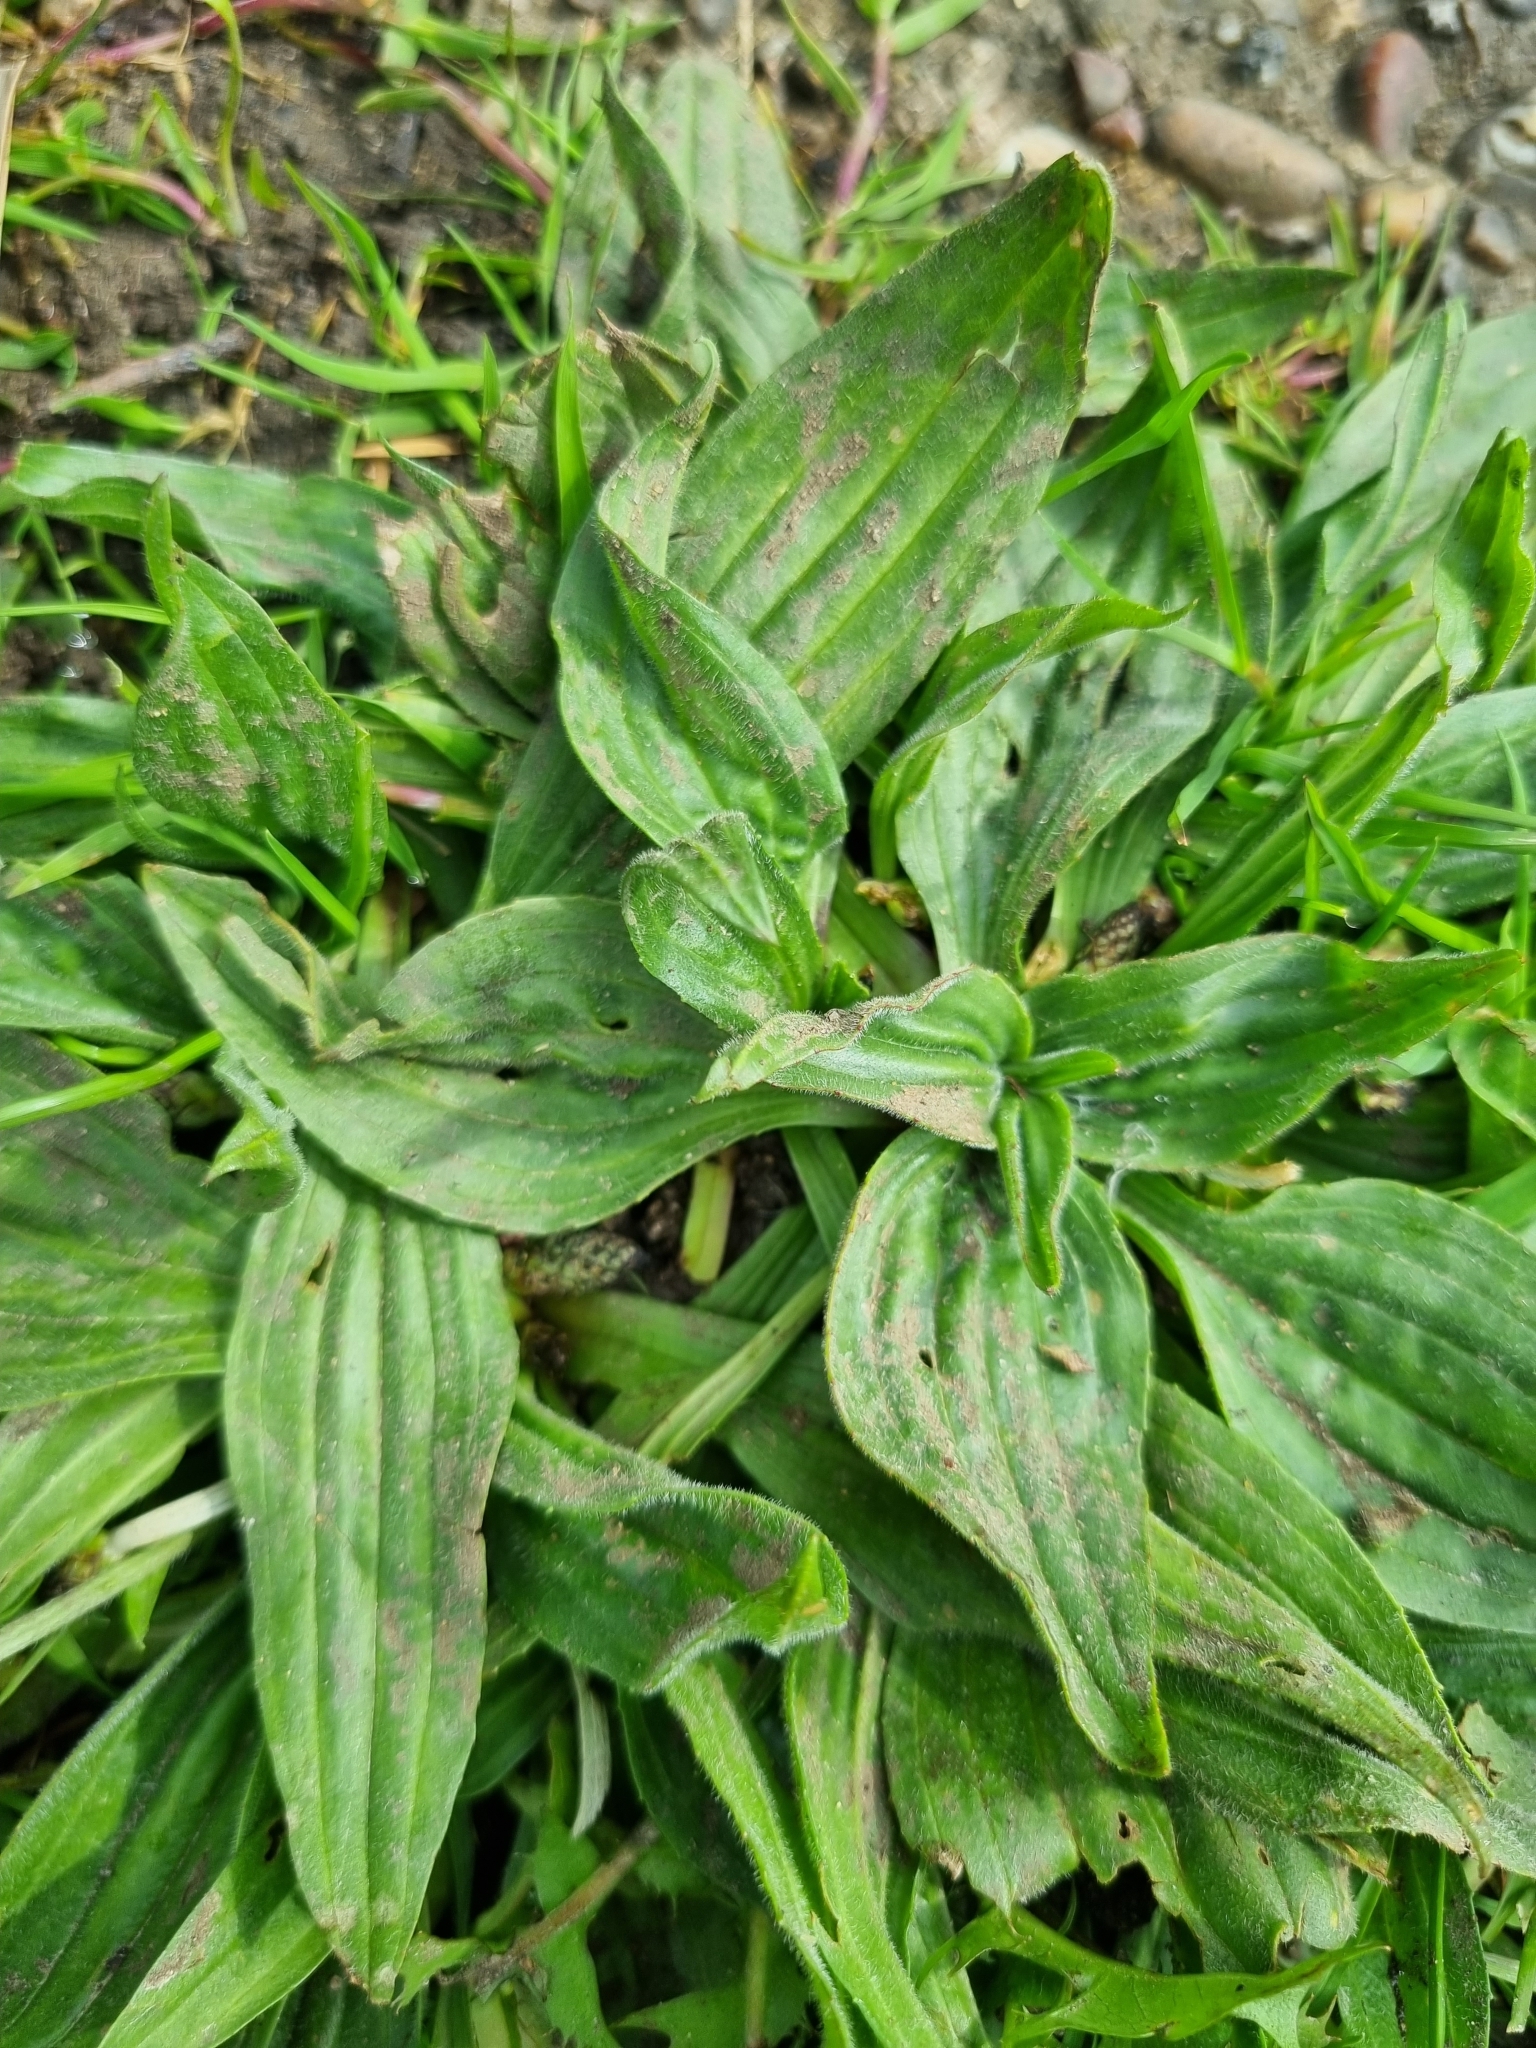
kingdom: Plantae
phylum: Tracheophyta
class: Magnoliopsida
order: Lamiales
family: Plantaginaceae
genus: Plantago
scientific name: Plantago lanceolata
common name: Ribwort plantain
